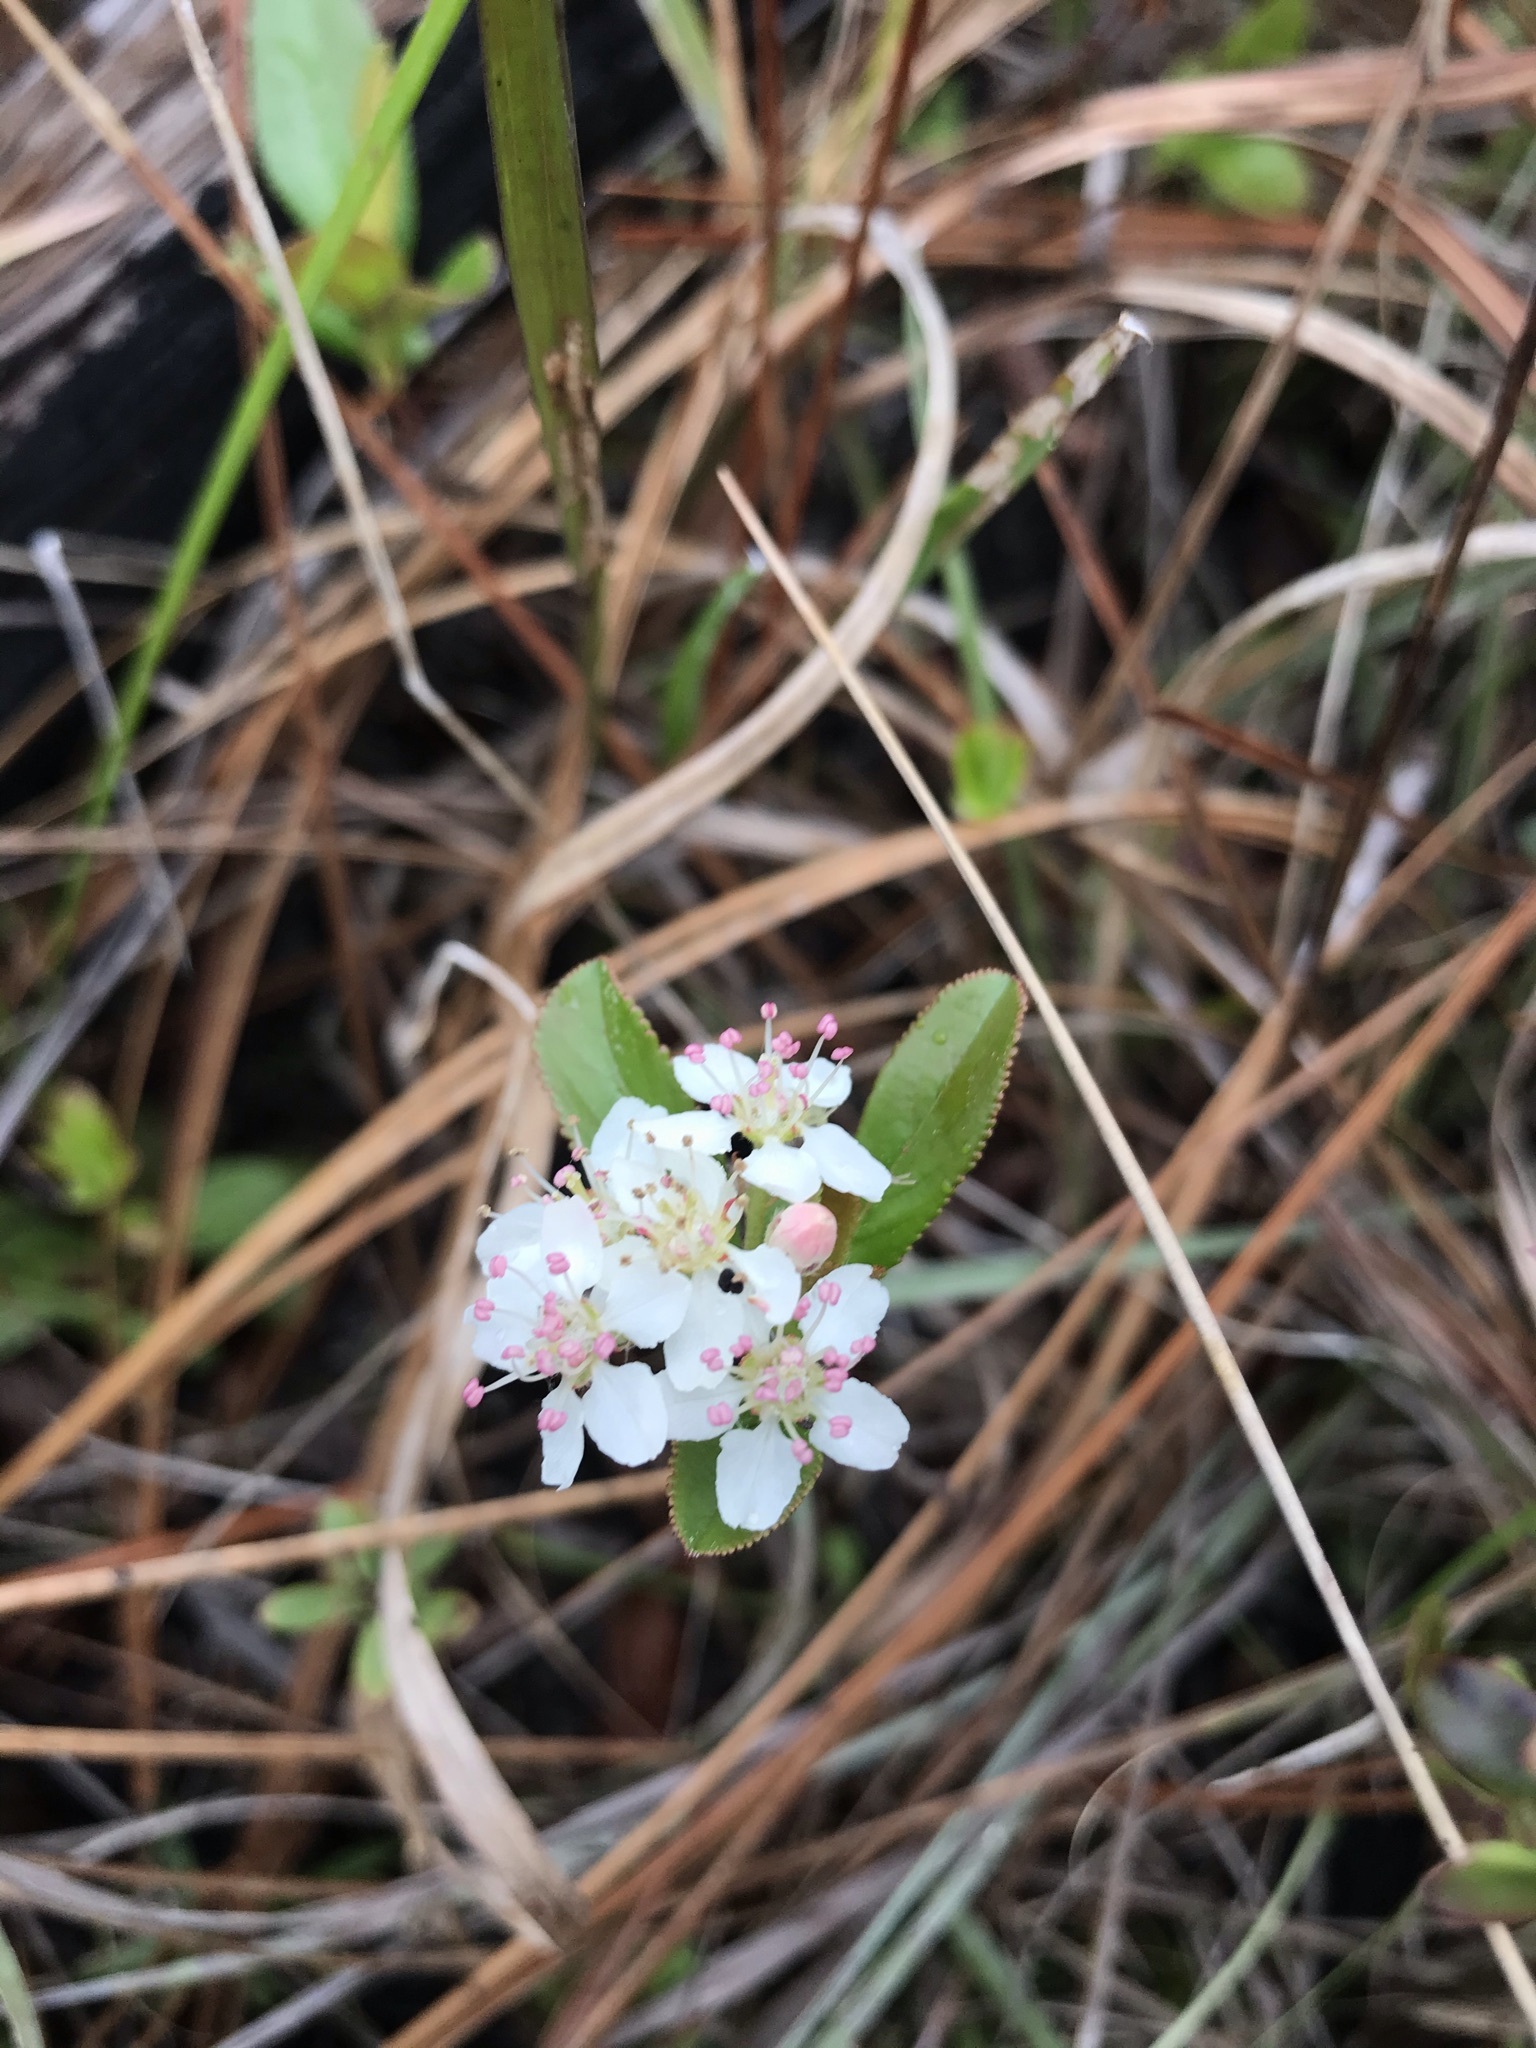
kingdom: Plantae
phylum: Tracheophyta
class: Magnoliopsida
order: Rosales
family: Rosaceae
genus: Aronia
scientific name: Aronia arbutifolia
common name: Red chokeberry
